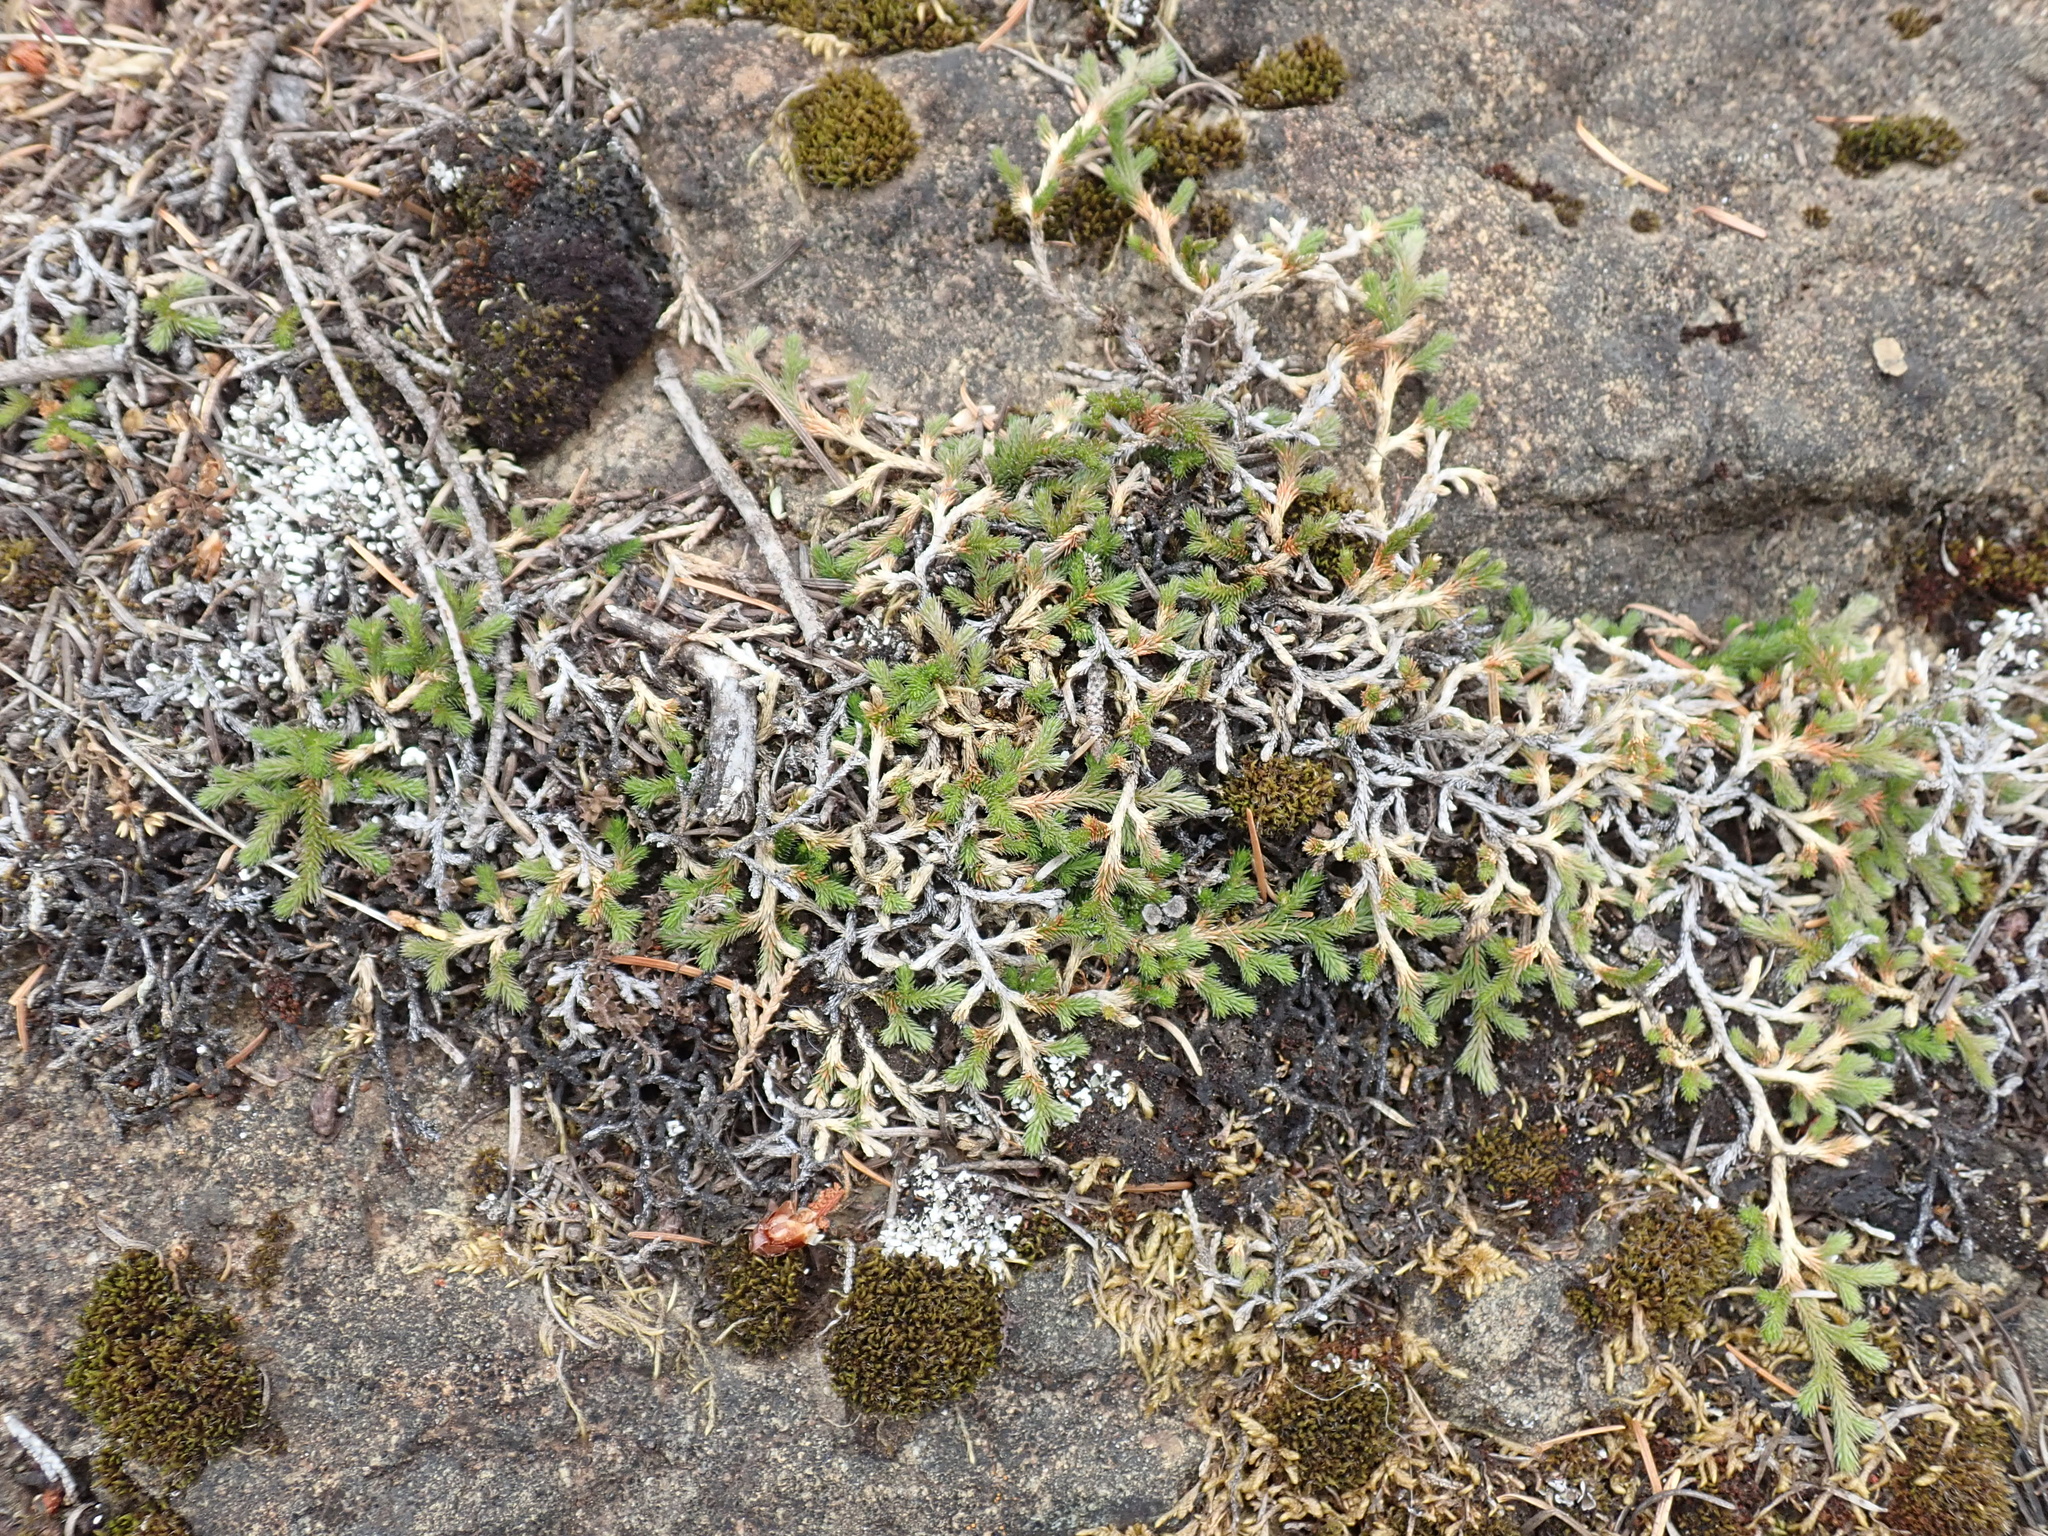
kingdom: Plantae
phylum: Tracheophyta
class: Lycopodiopsida
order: Selaginellales
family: Selaginellaceae
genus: Selaginella
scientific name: Selaginella wallacei
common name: Wallace's selaginella
